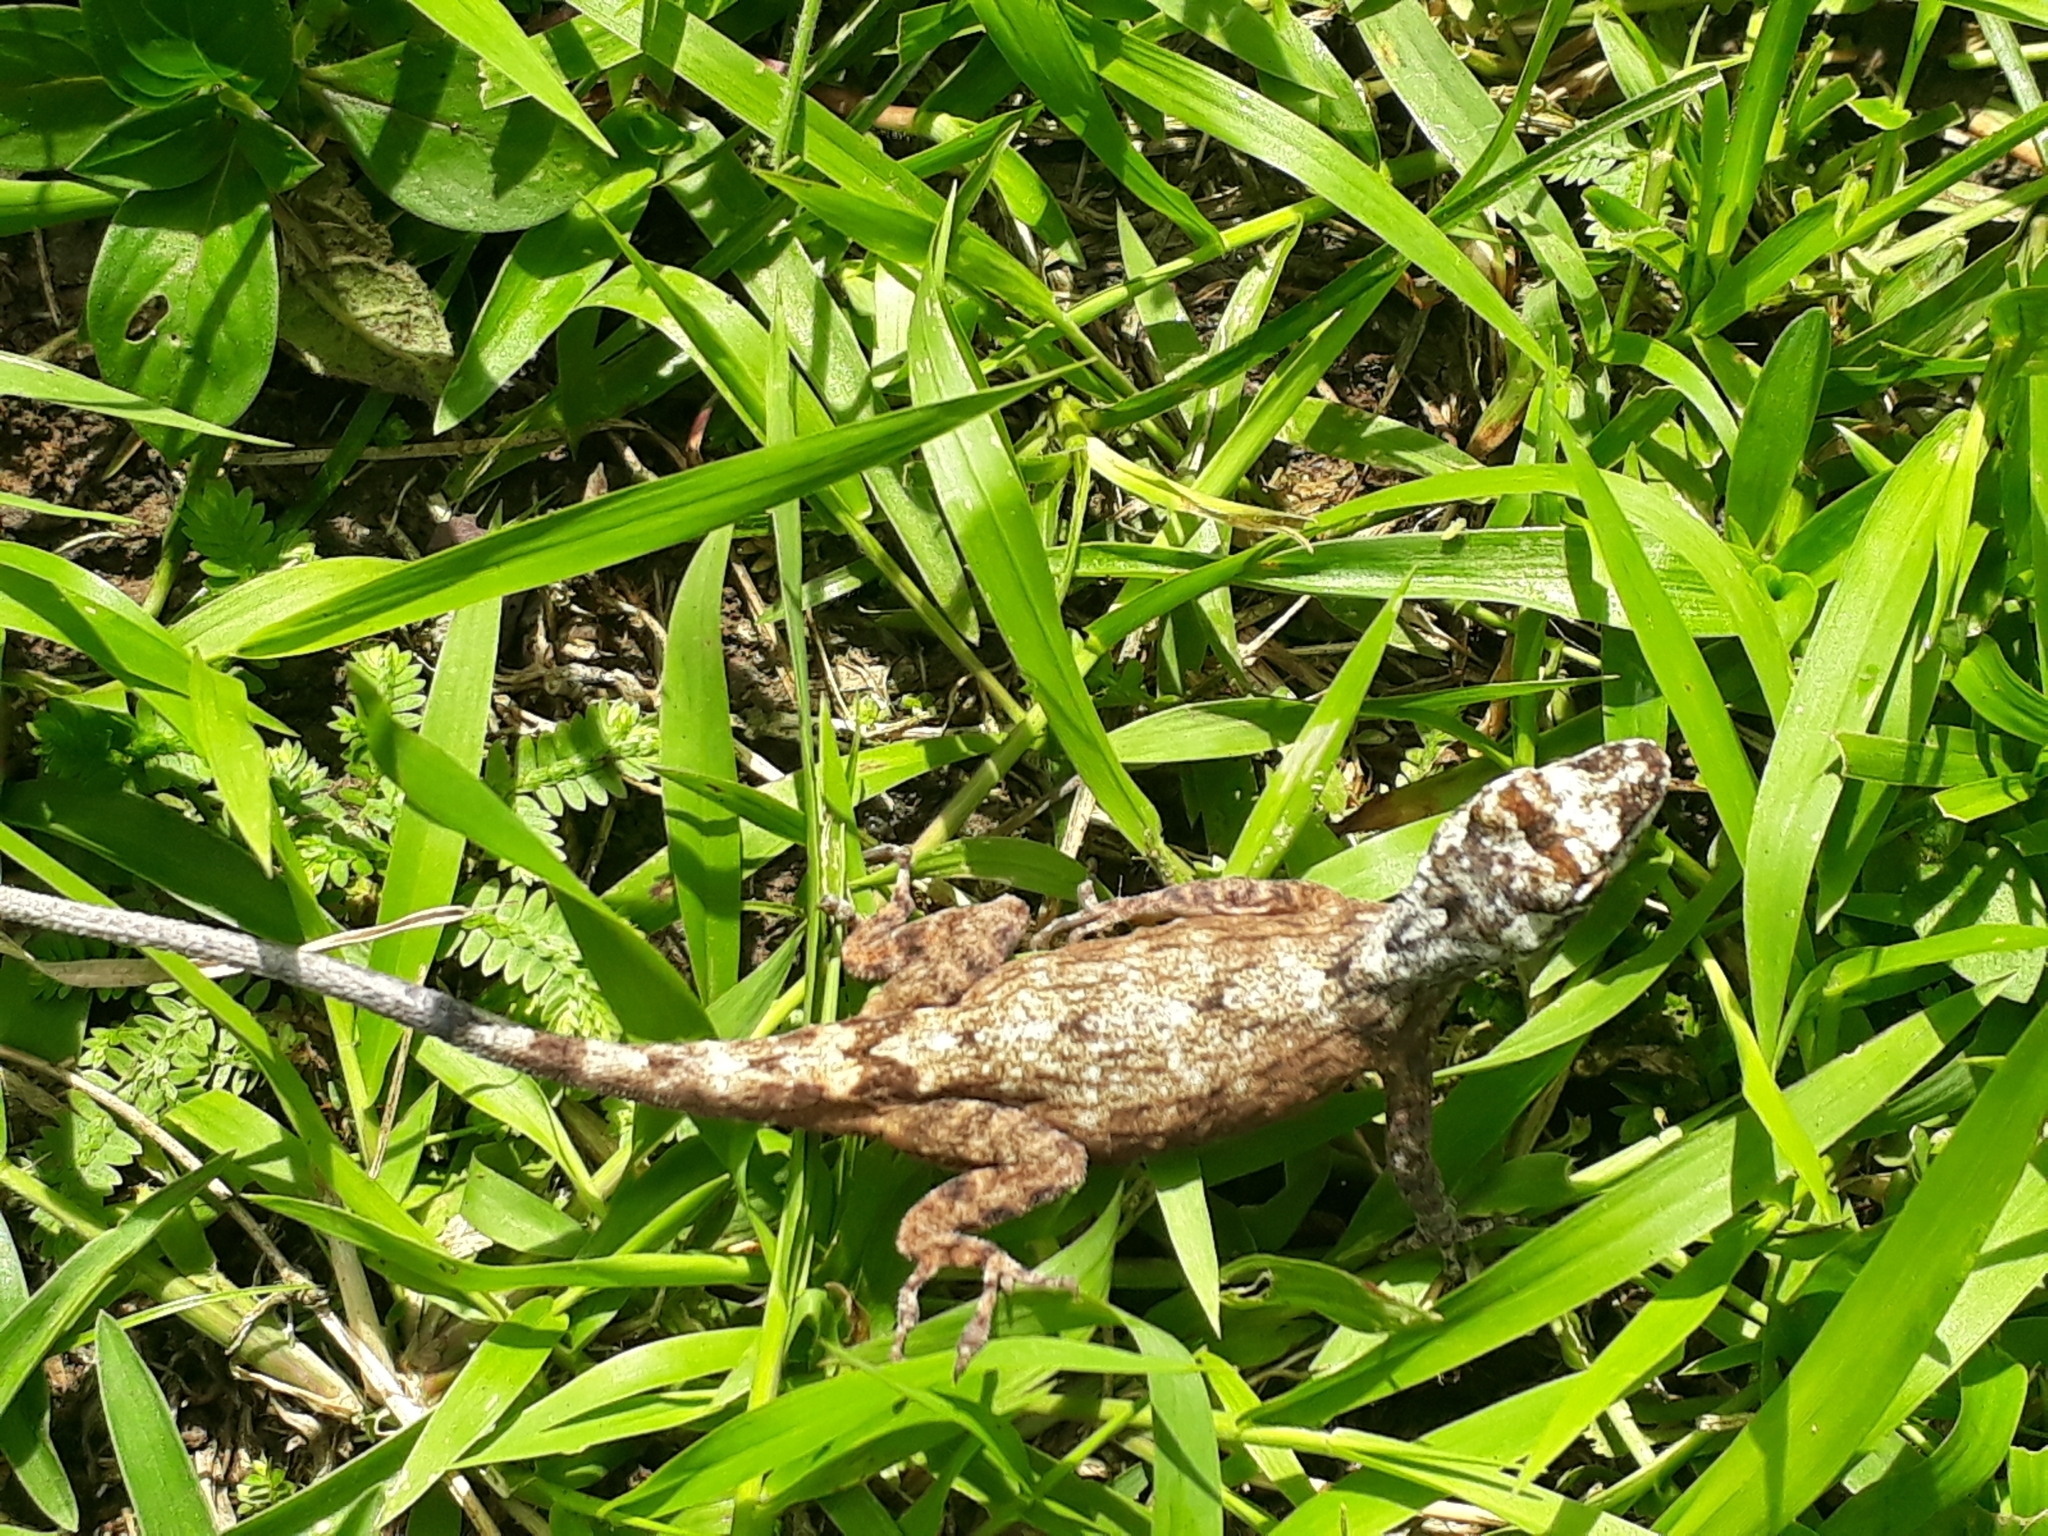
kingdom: Animalia
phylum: Chordata
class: Squamata
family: Dactyloidae
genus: Anolis
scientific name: Anolis sulcifrons
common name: Grooved anole
